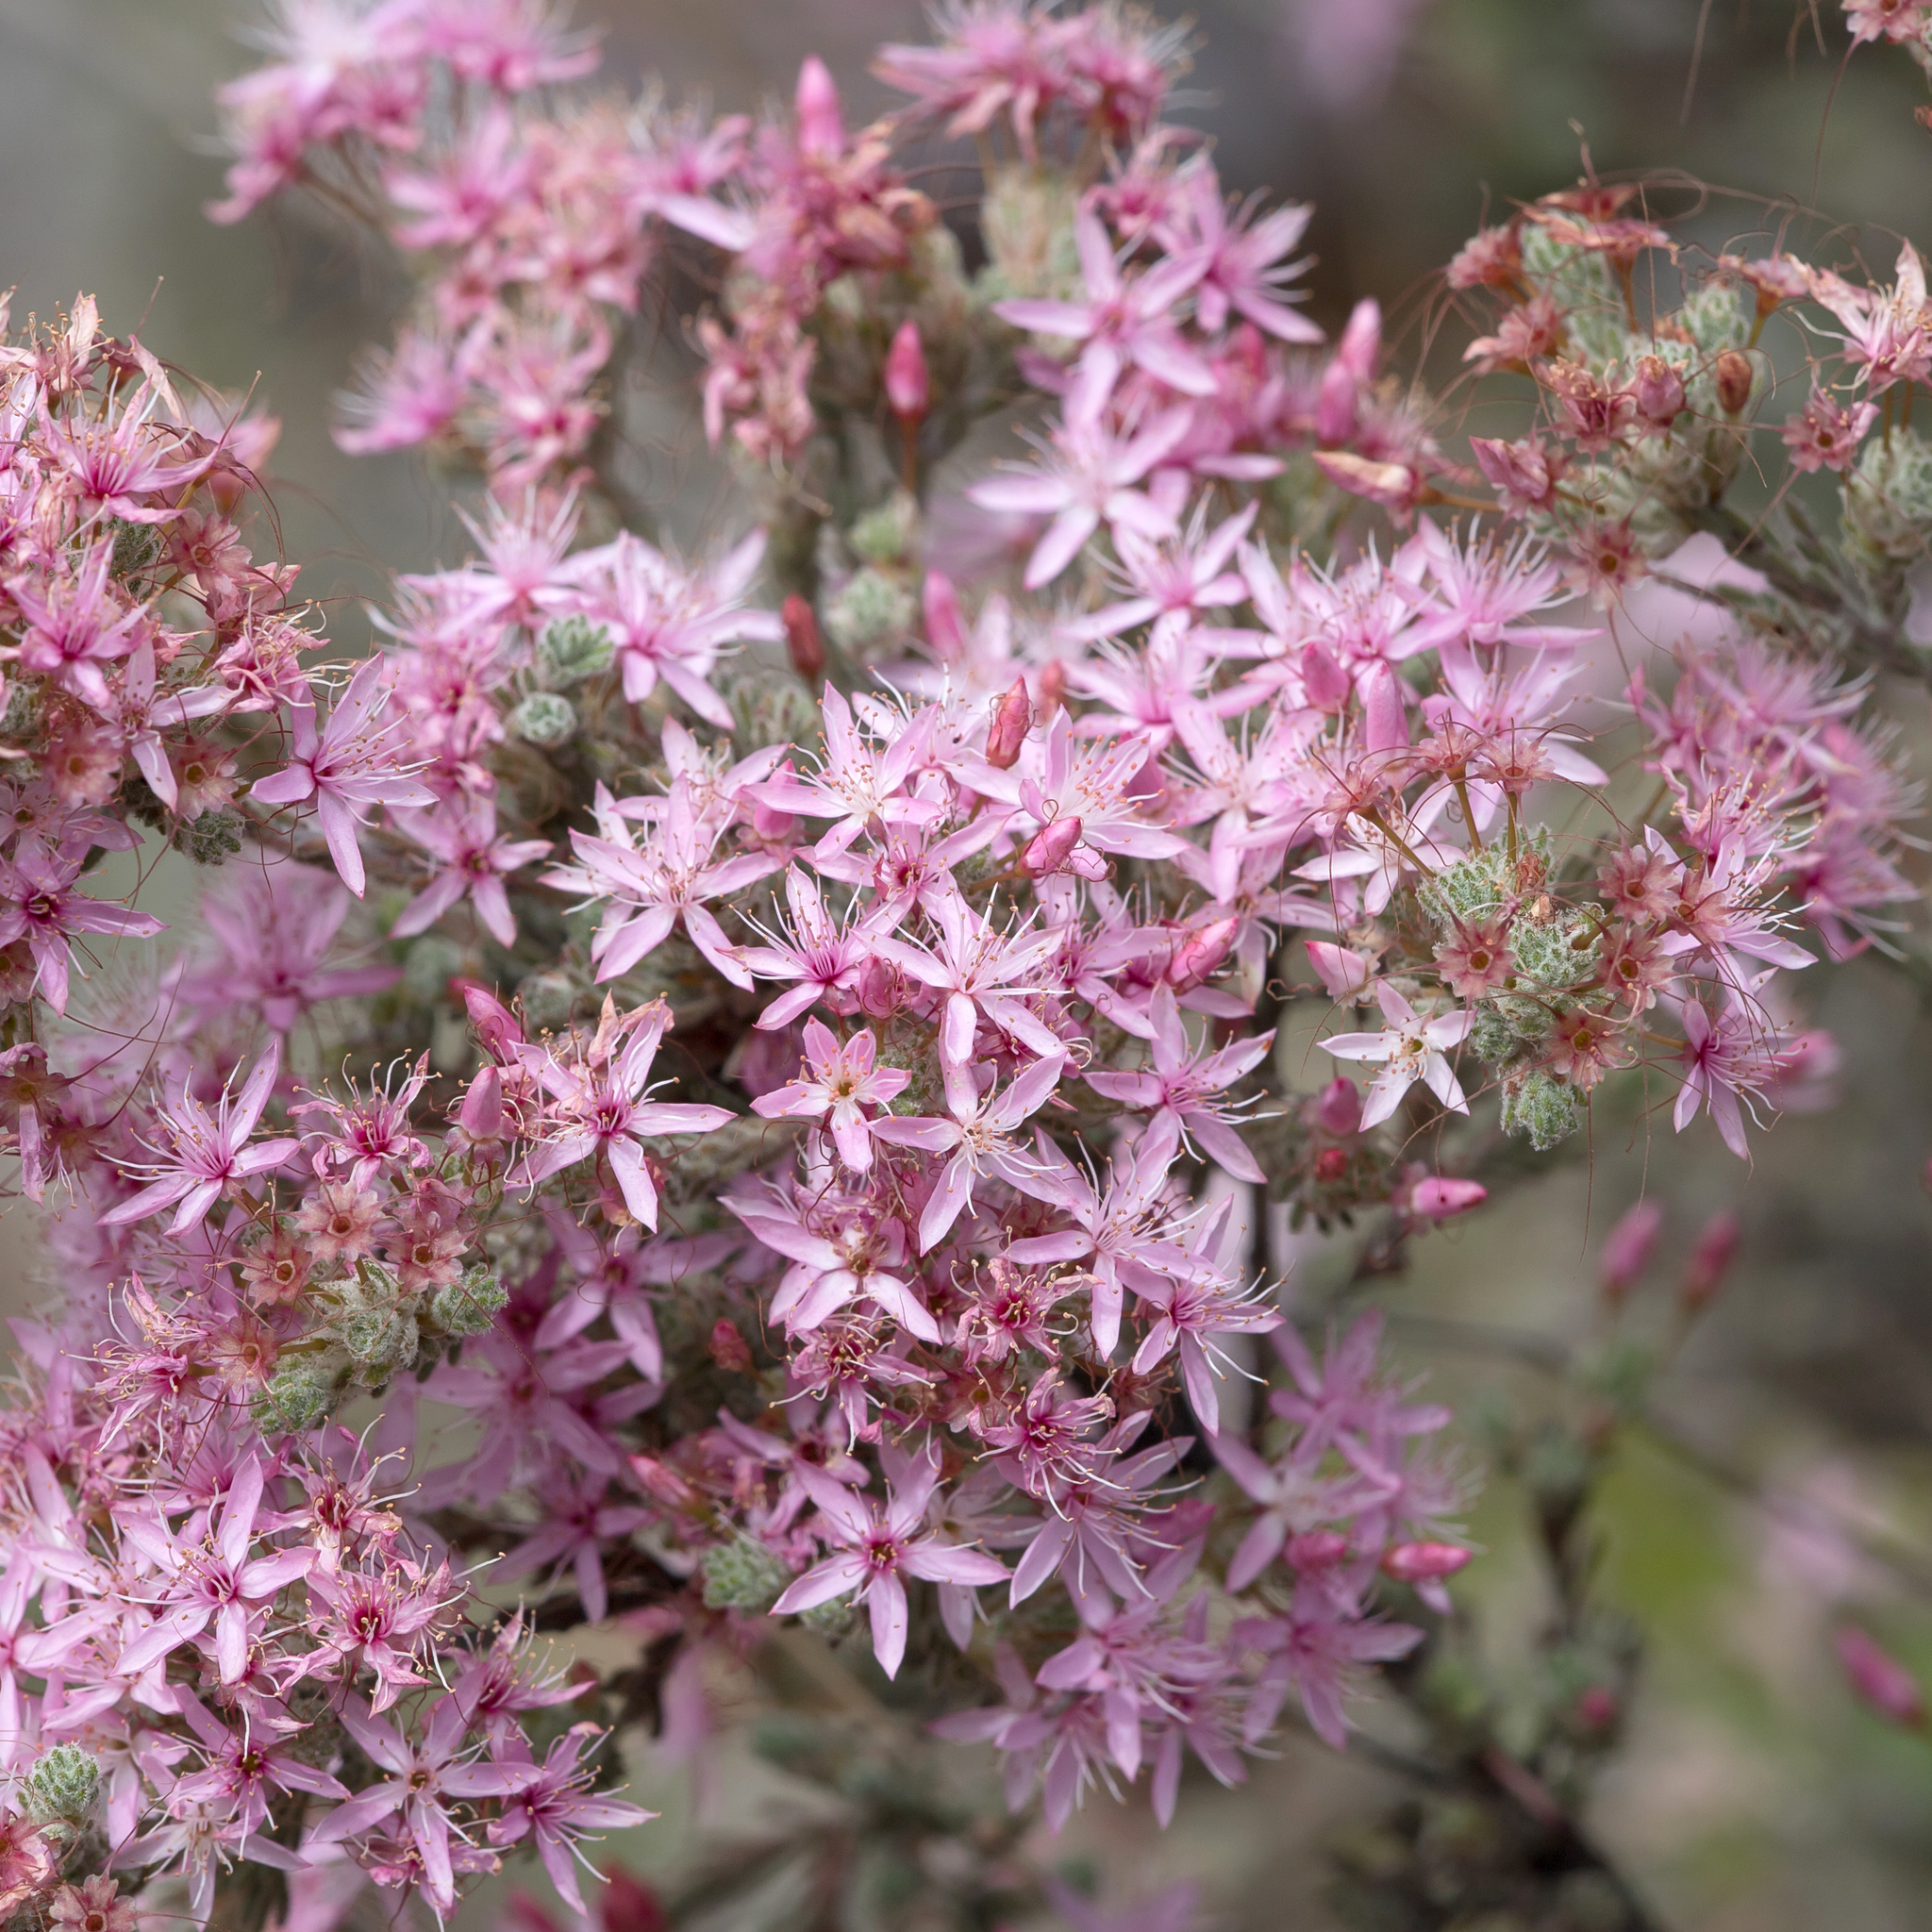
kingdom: Plantae
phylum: Tracheophyta
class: Magnoliopsida
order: Myrtales
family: Myrtaceae
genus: Calytrix
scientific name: Calytrix tetragona
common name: Common fringe myrtle
